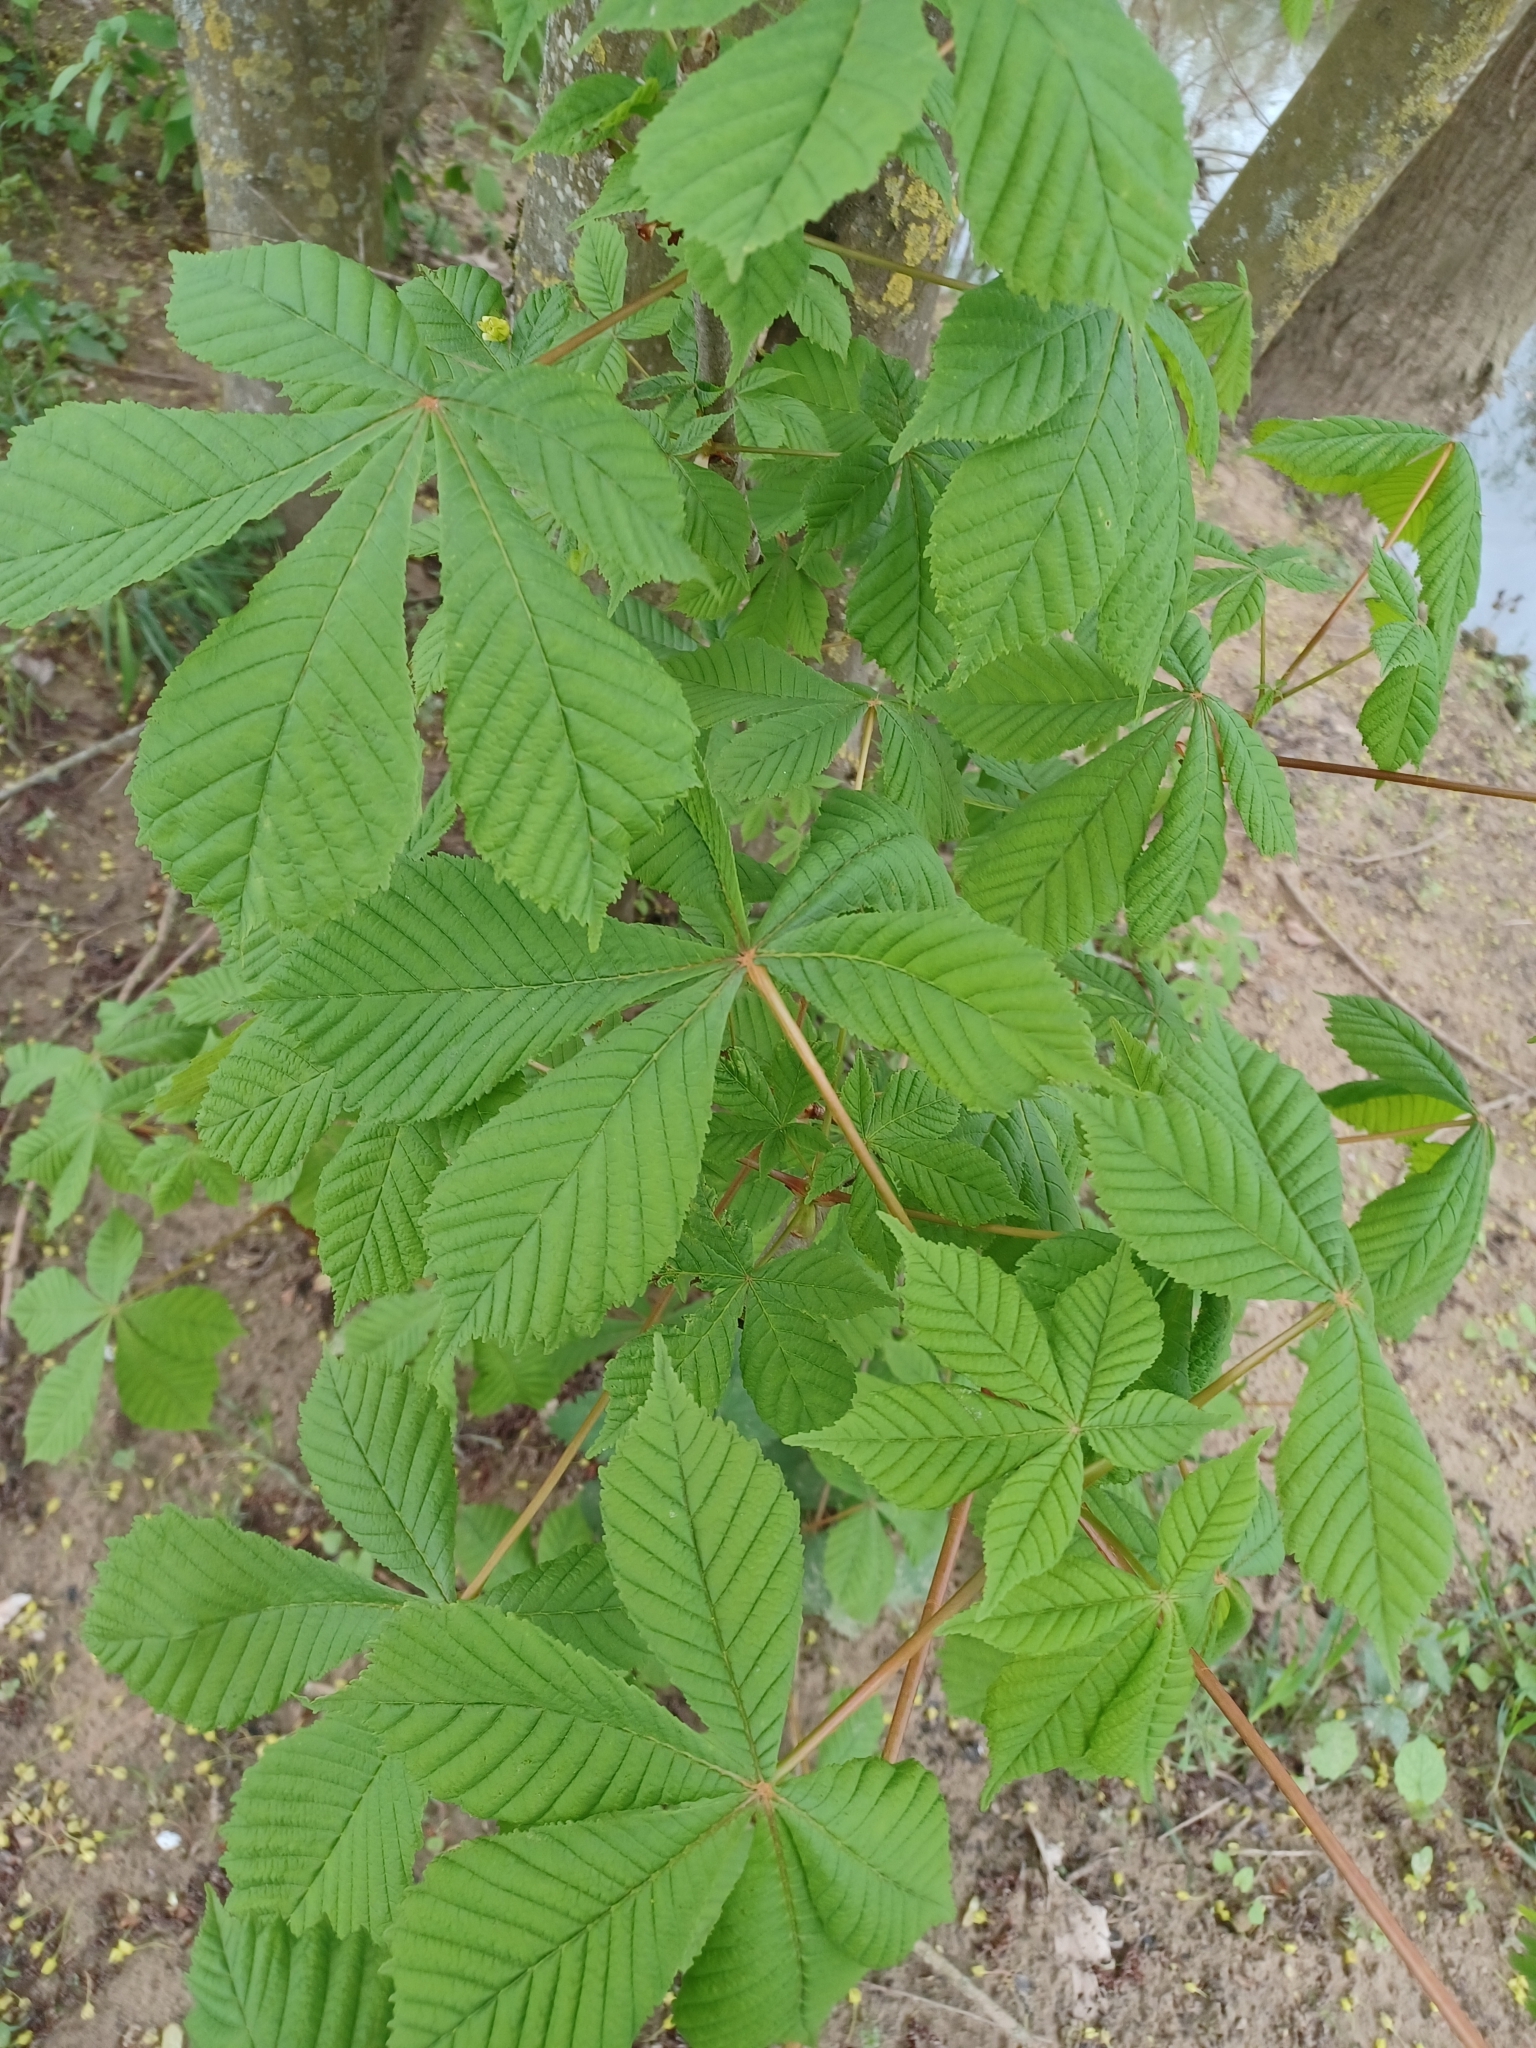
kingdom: Plantae
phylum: Tracheophyta
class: Magnoliopsida
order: Sapindales
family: Sapindaceae
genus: Aesculus
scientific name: Aesculus hippocastanum
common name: Horse-chestnut
